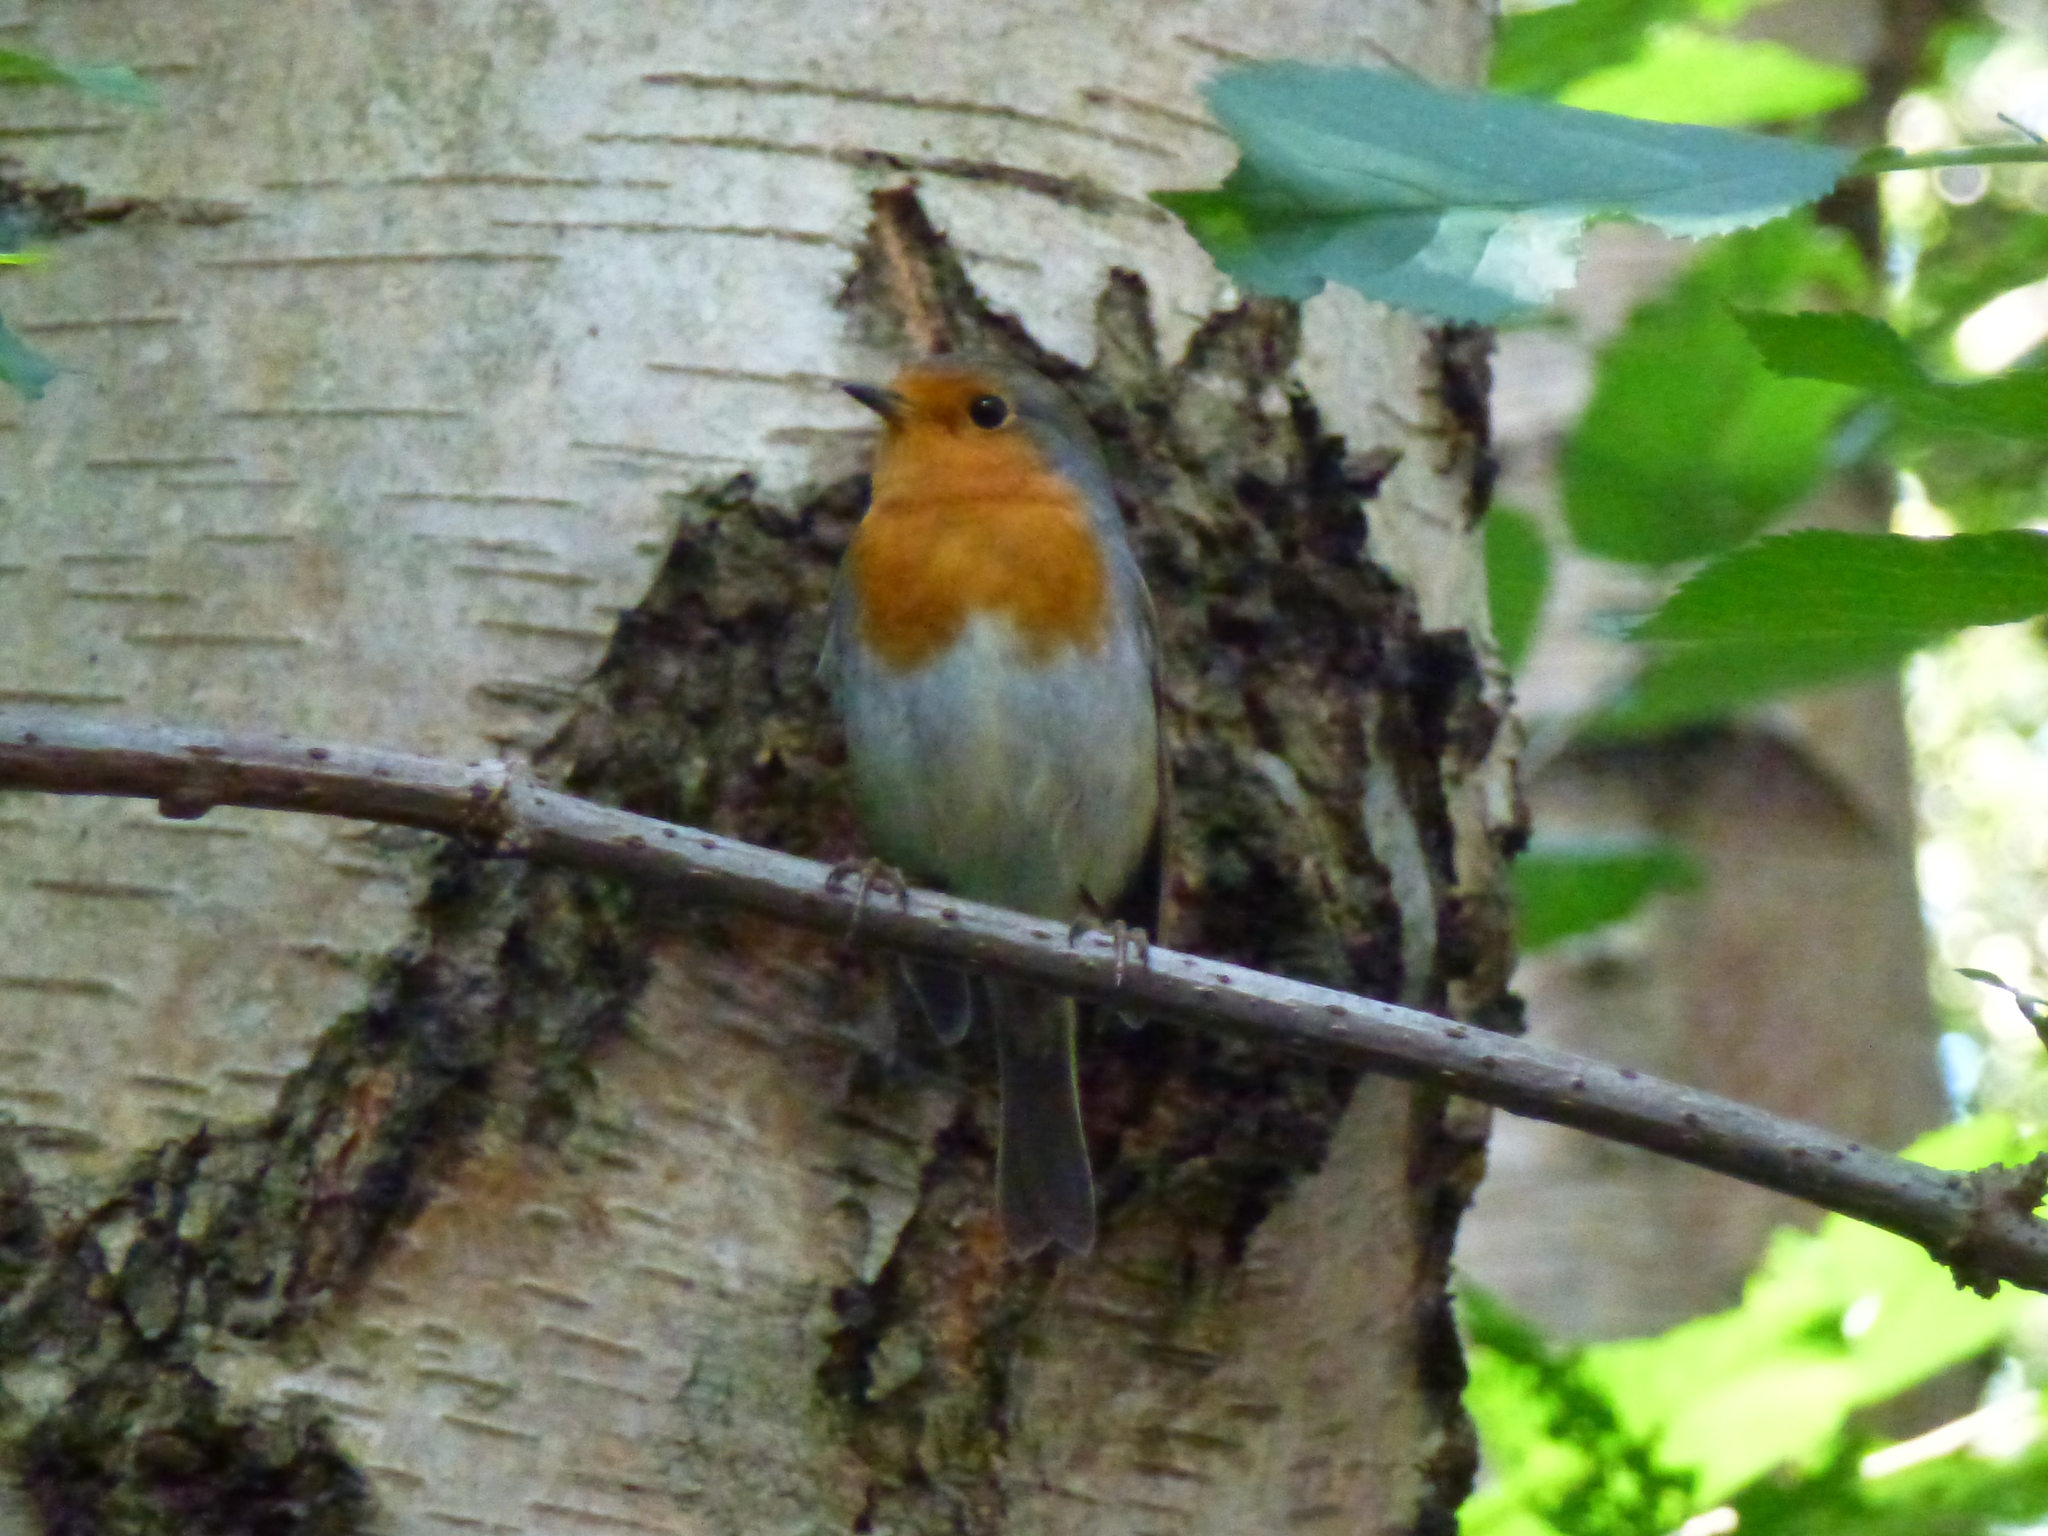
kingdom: Animalia
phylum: Chordata
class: Aves
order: Passeriformes
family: Muscicapidae
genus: Erithacus
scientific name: Erithacus rubecula
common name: European robin
